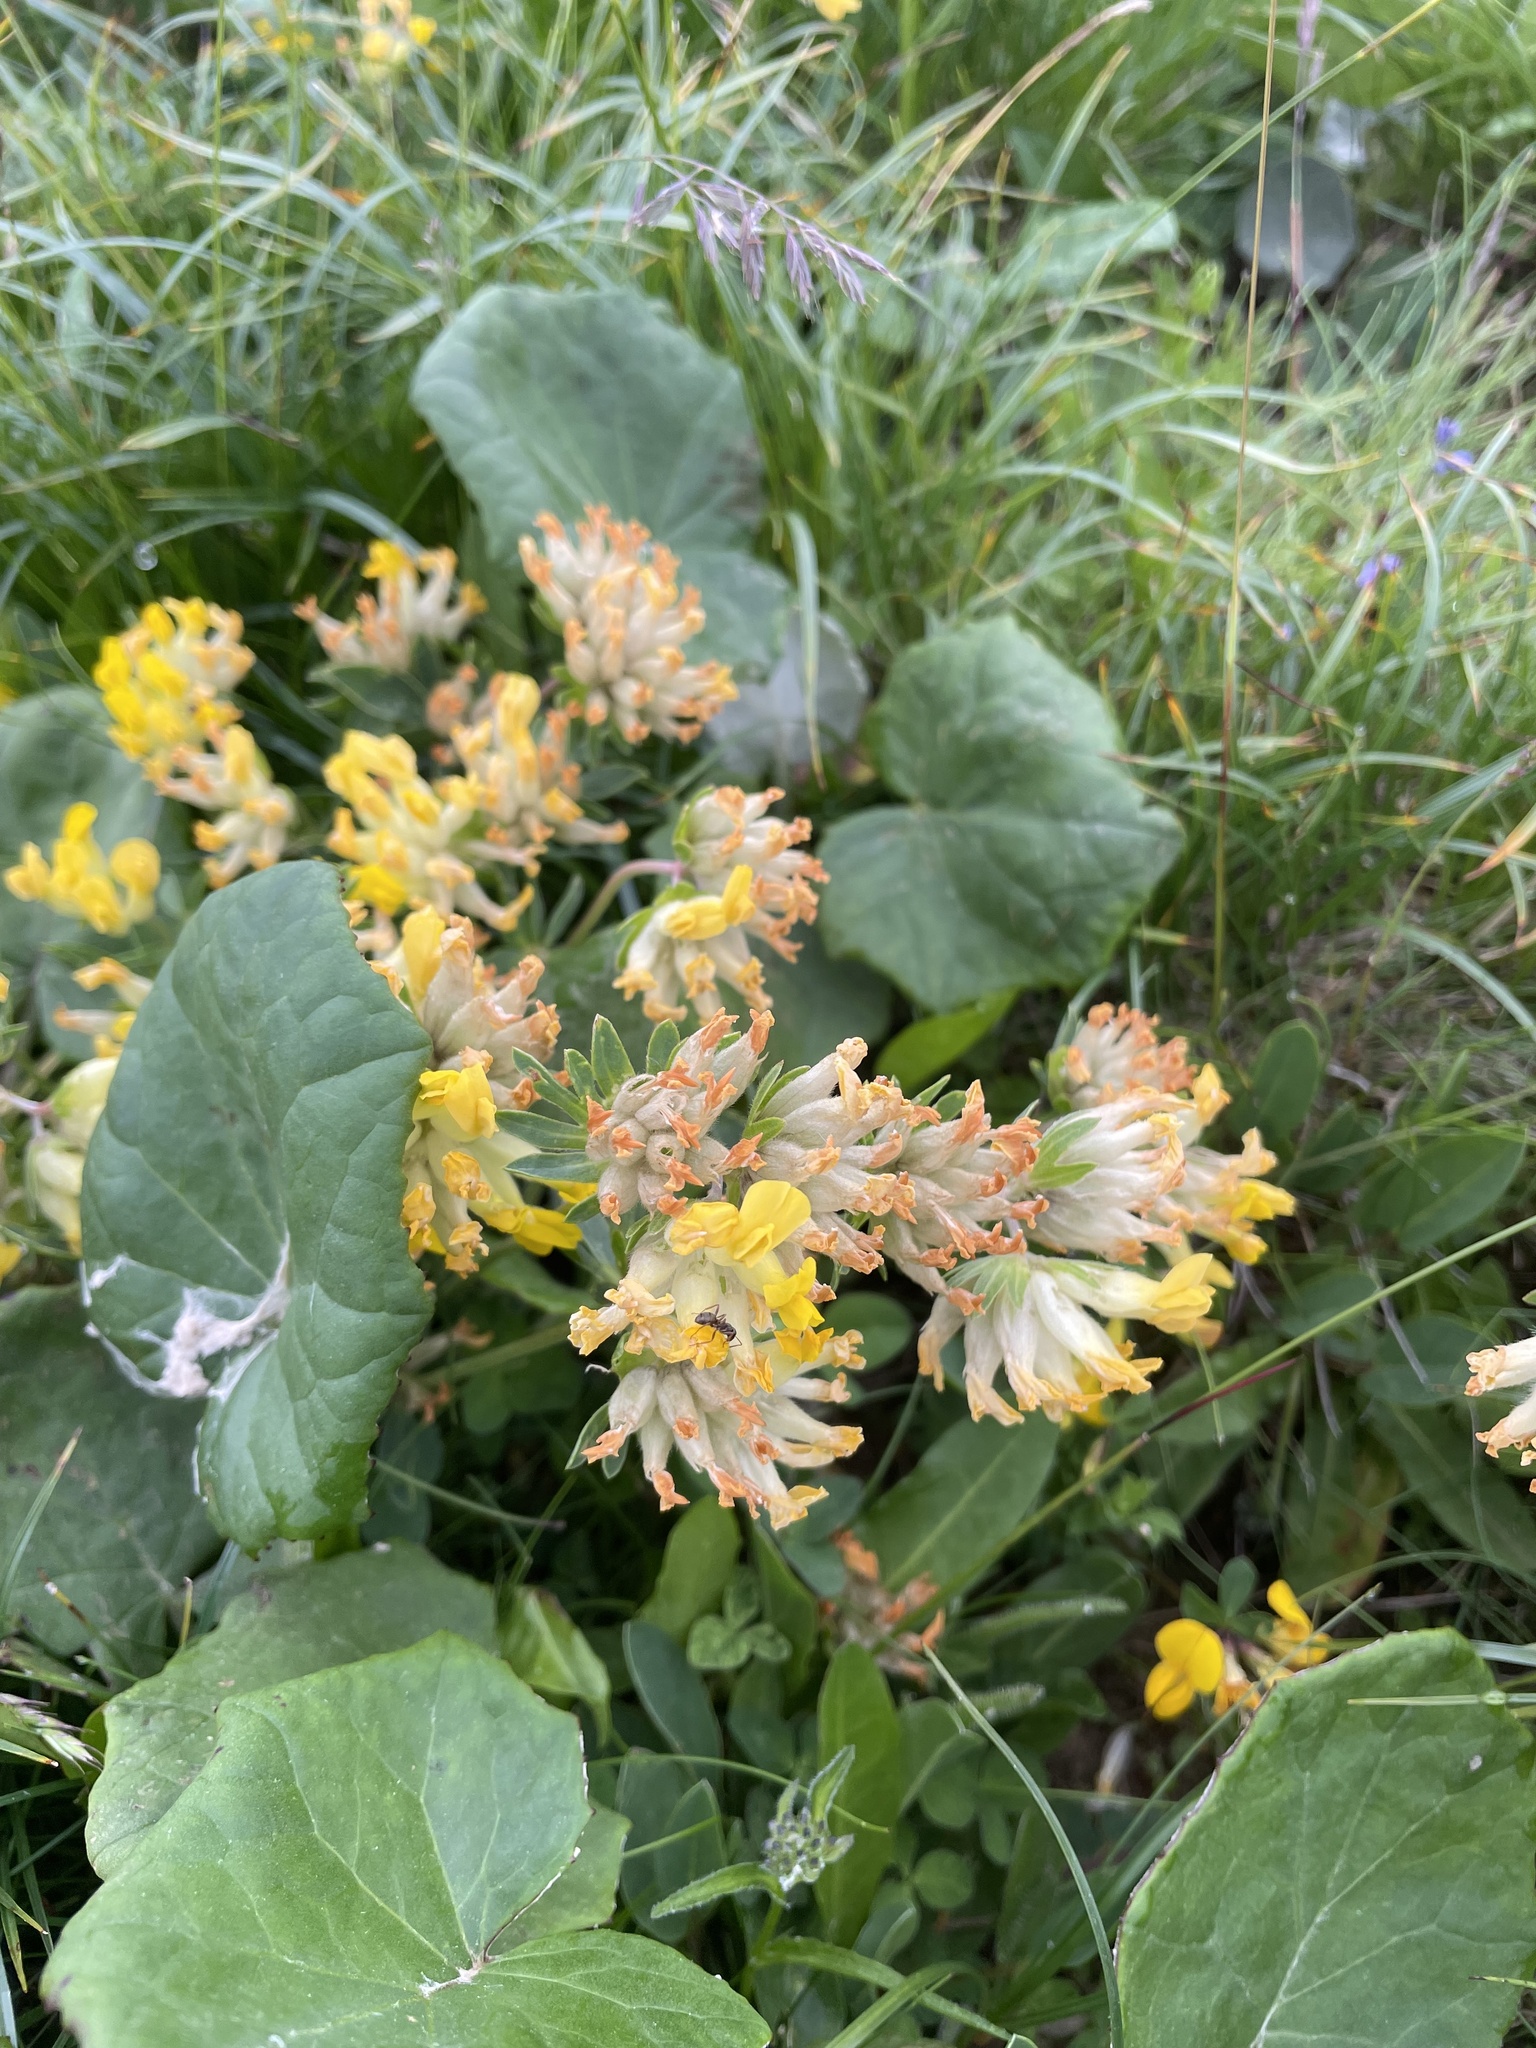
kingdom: Plantae
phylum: Tracheophyta
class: Magnoliopsida
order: Fabales
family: Fabaceae
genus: Anthyllis
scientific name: Anthyllis vulneraria
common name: Kidney vetch
